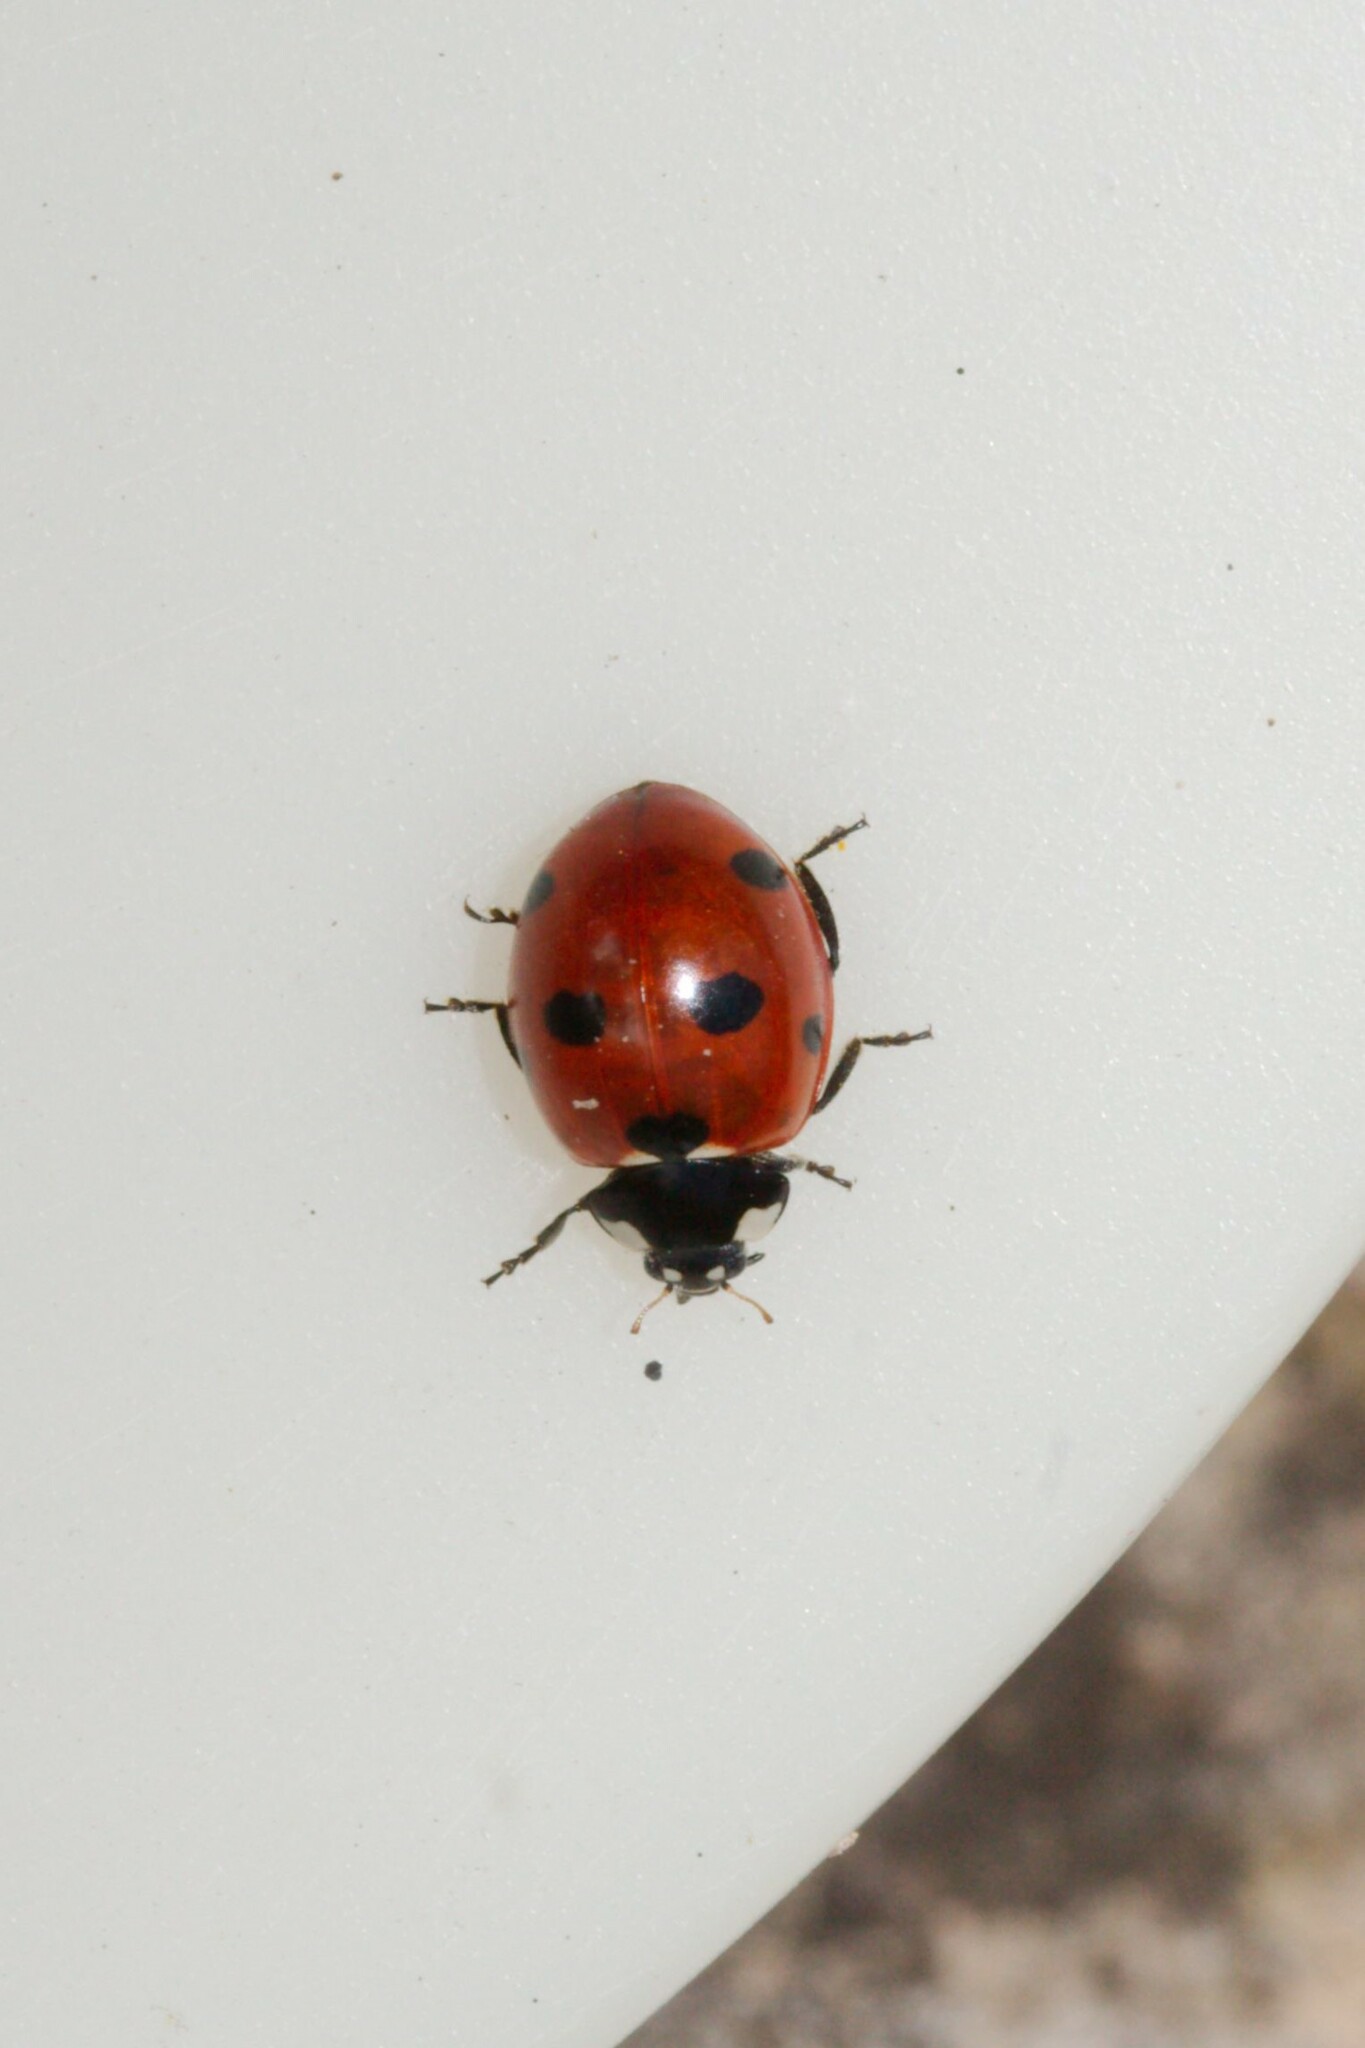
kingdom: Animalia
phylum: Arthropoda
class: Insecta
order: Coleoptera
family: Coccinellidae
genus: Coccinella
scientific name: Coccinella septempunctata
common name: Sevenspotted lady beetle
